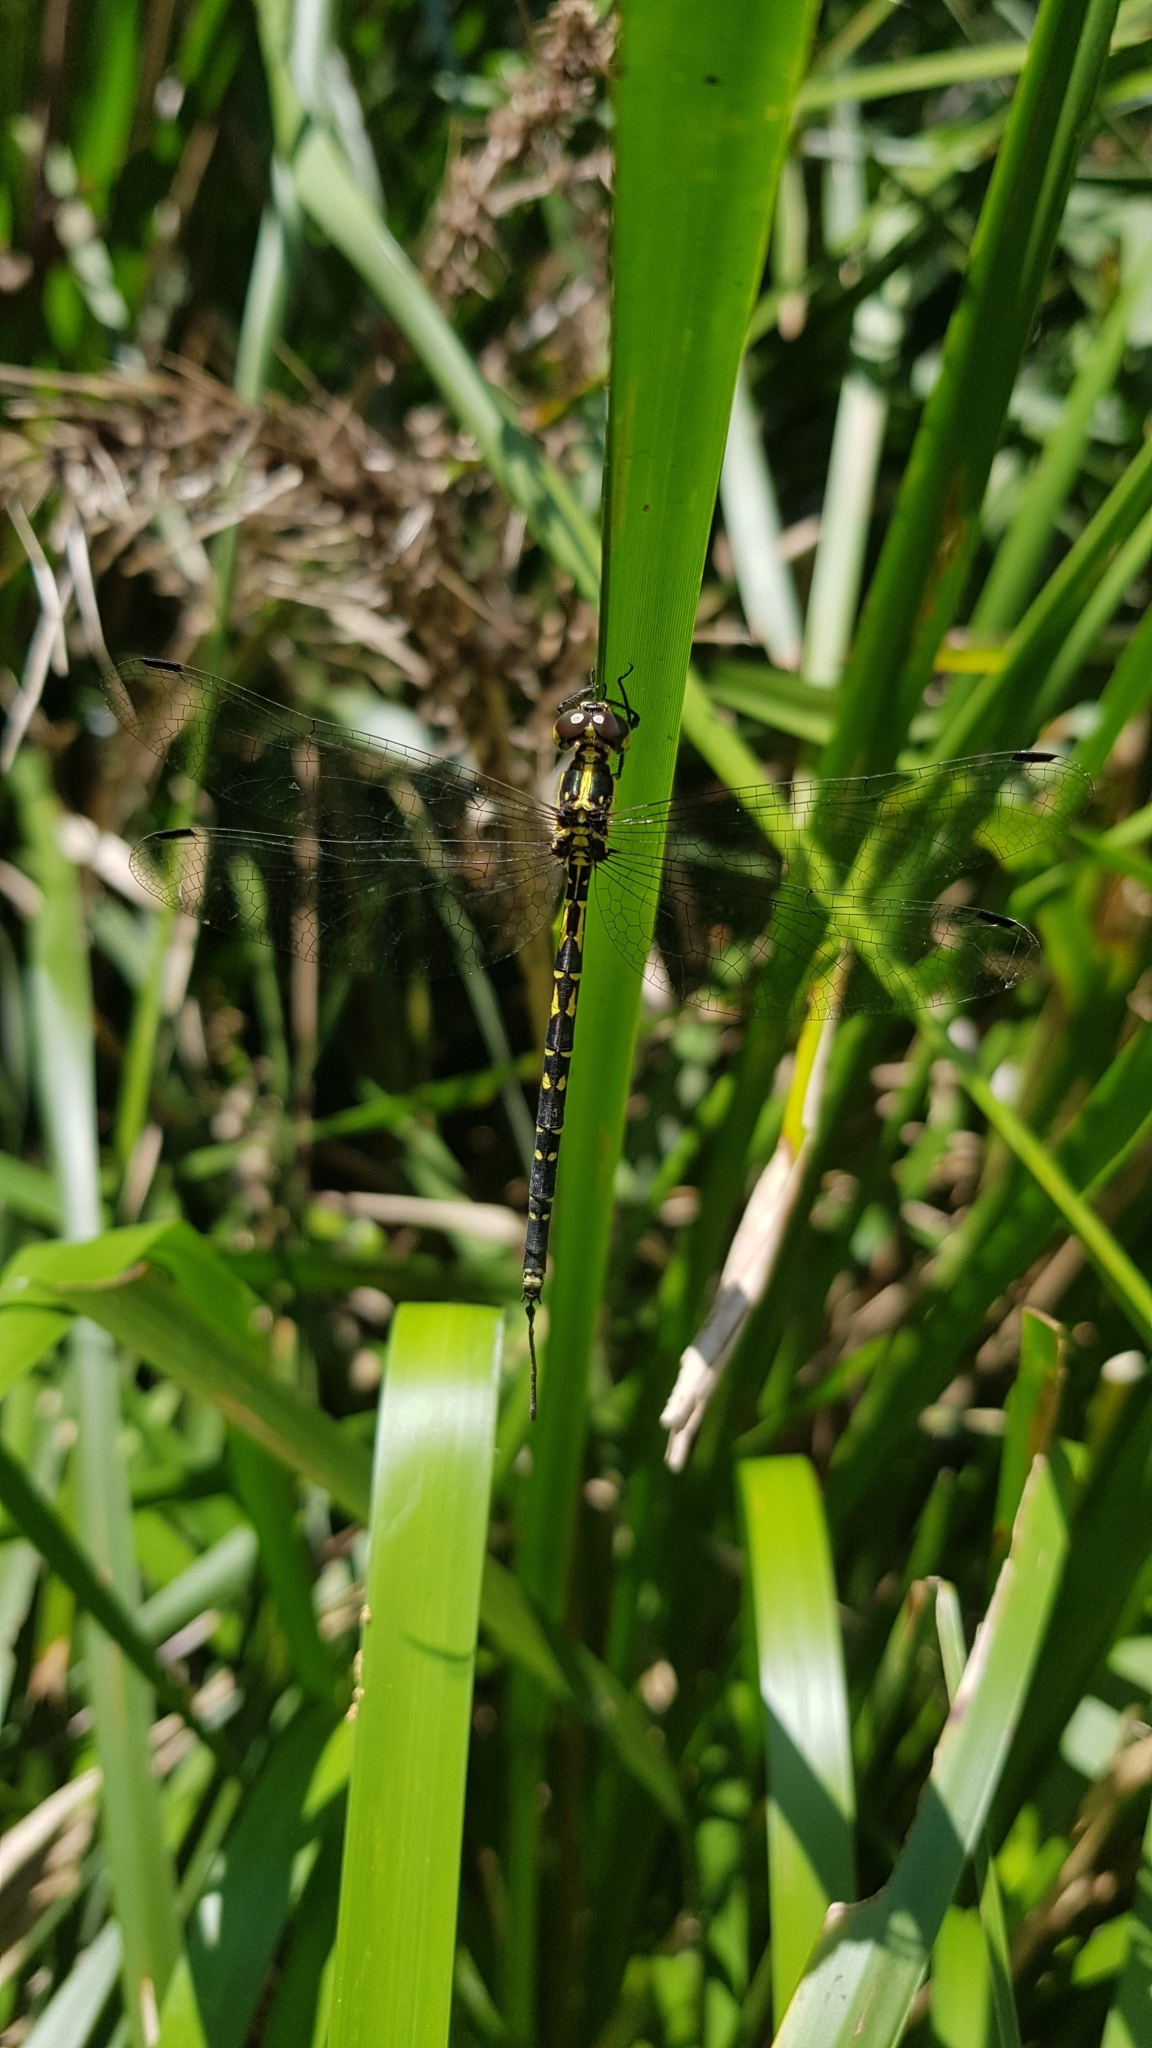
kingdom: Animalia
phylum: Arthropoda
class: Insecta
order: Odonata
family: Synthemistidae
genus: Choristhemis
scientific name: Choristhemis flavoterminata
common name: Yellow-tipped tigertail
